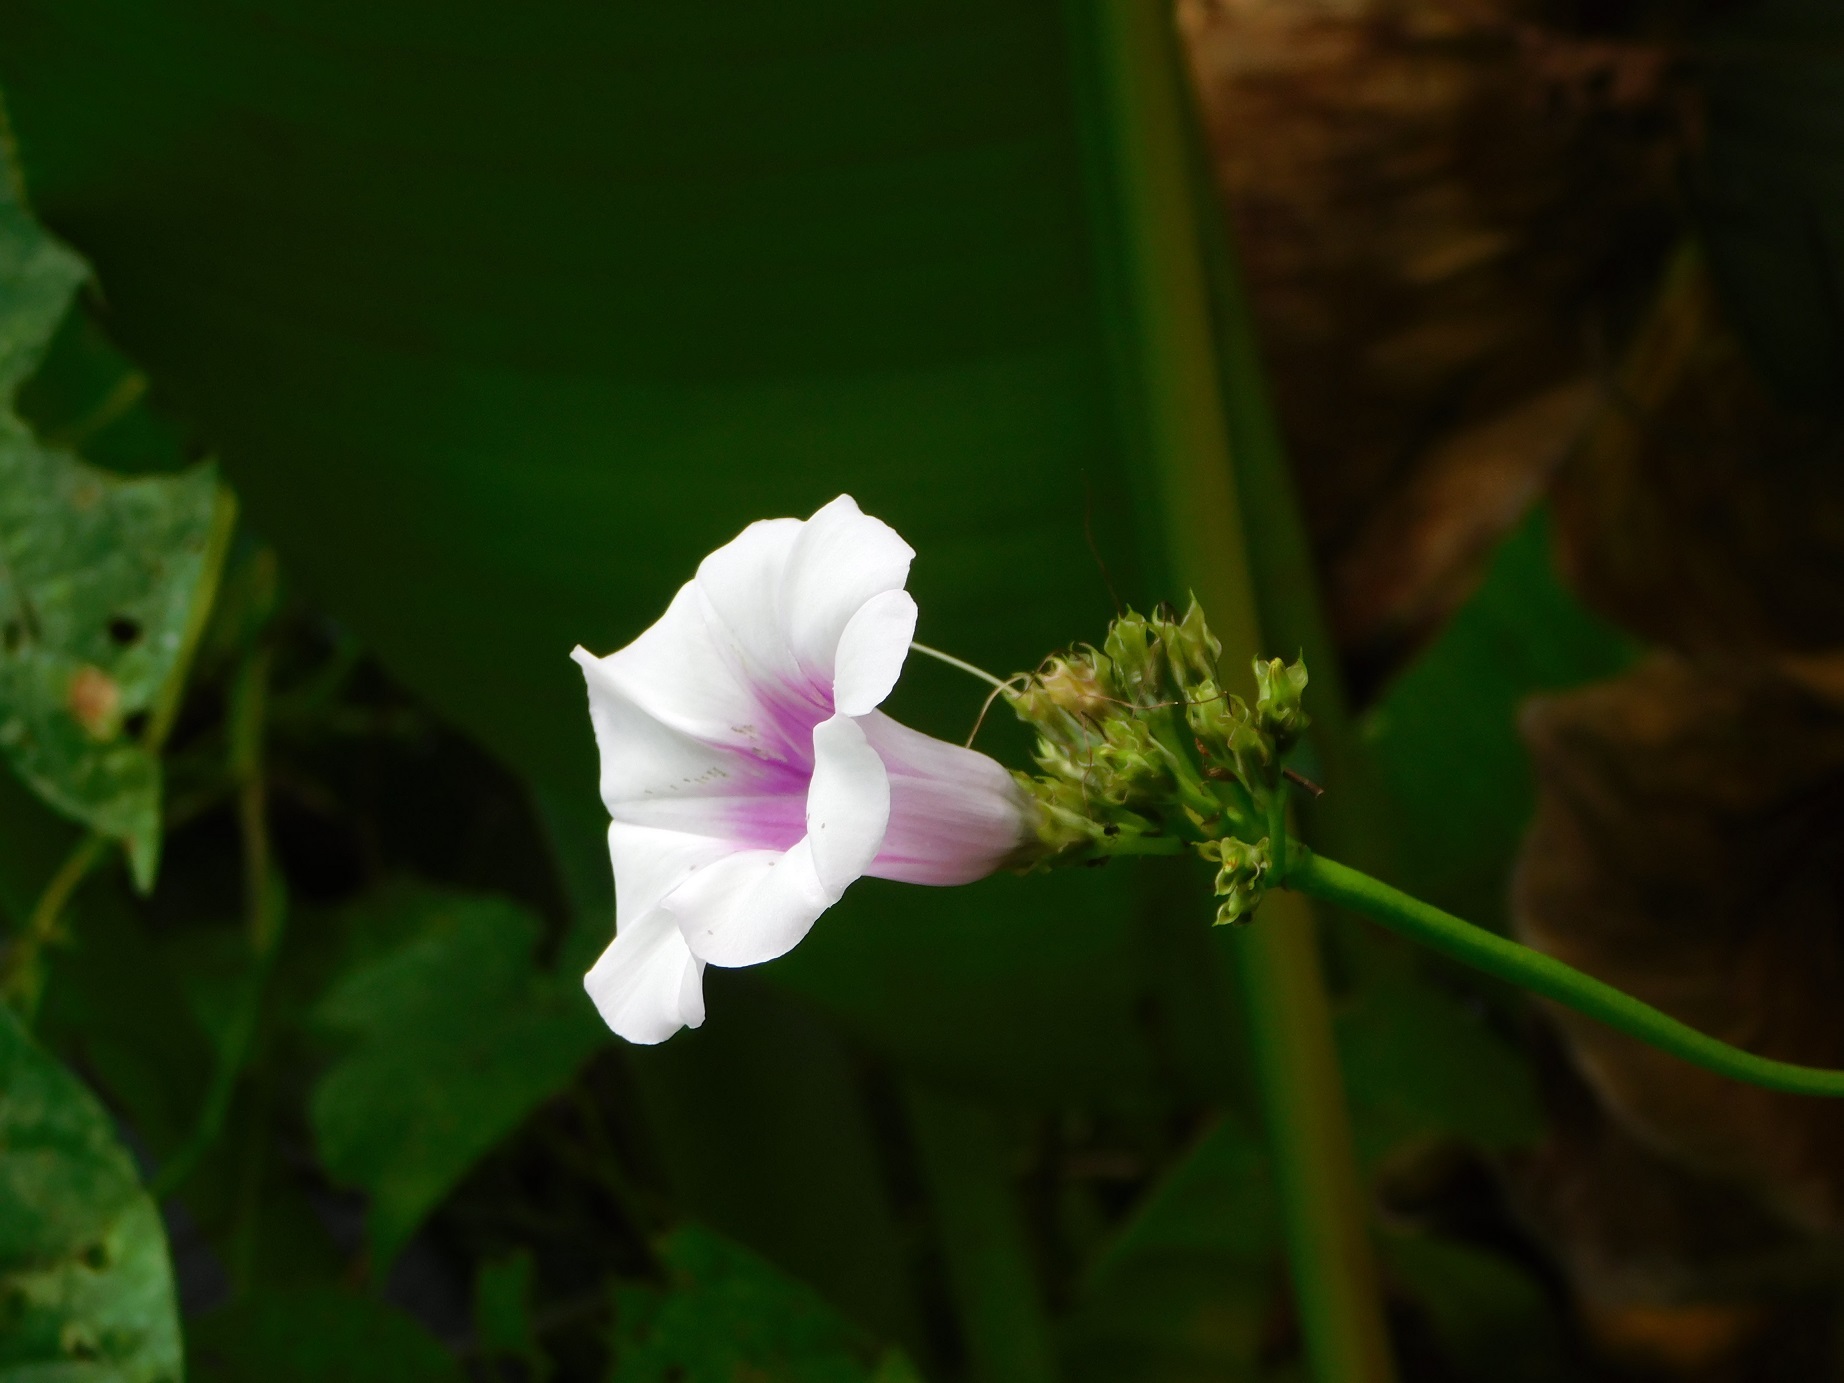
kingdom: Plantae
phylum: Tracheophyta
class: Magnoliopsida
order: Solanales
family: Convolvulaceae
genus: Ipomoea
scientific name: Ipomoea batatas
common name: Sweet-potato
